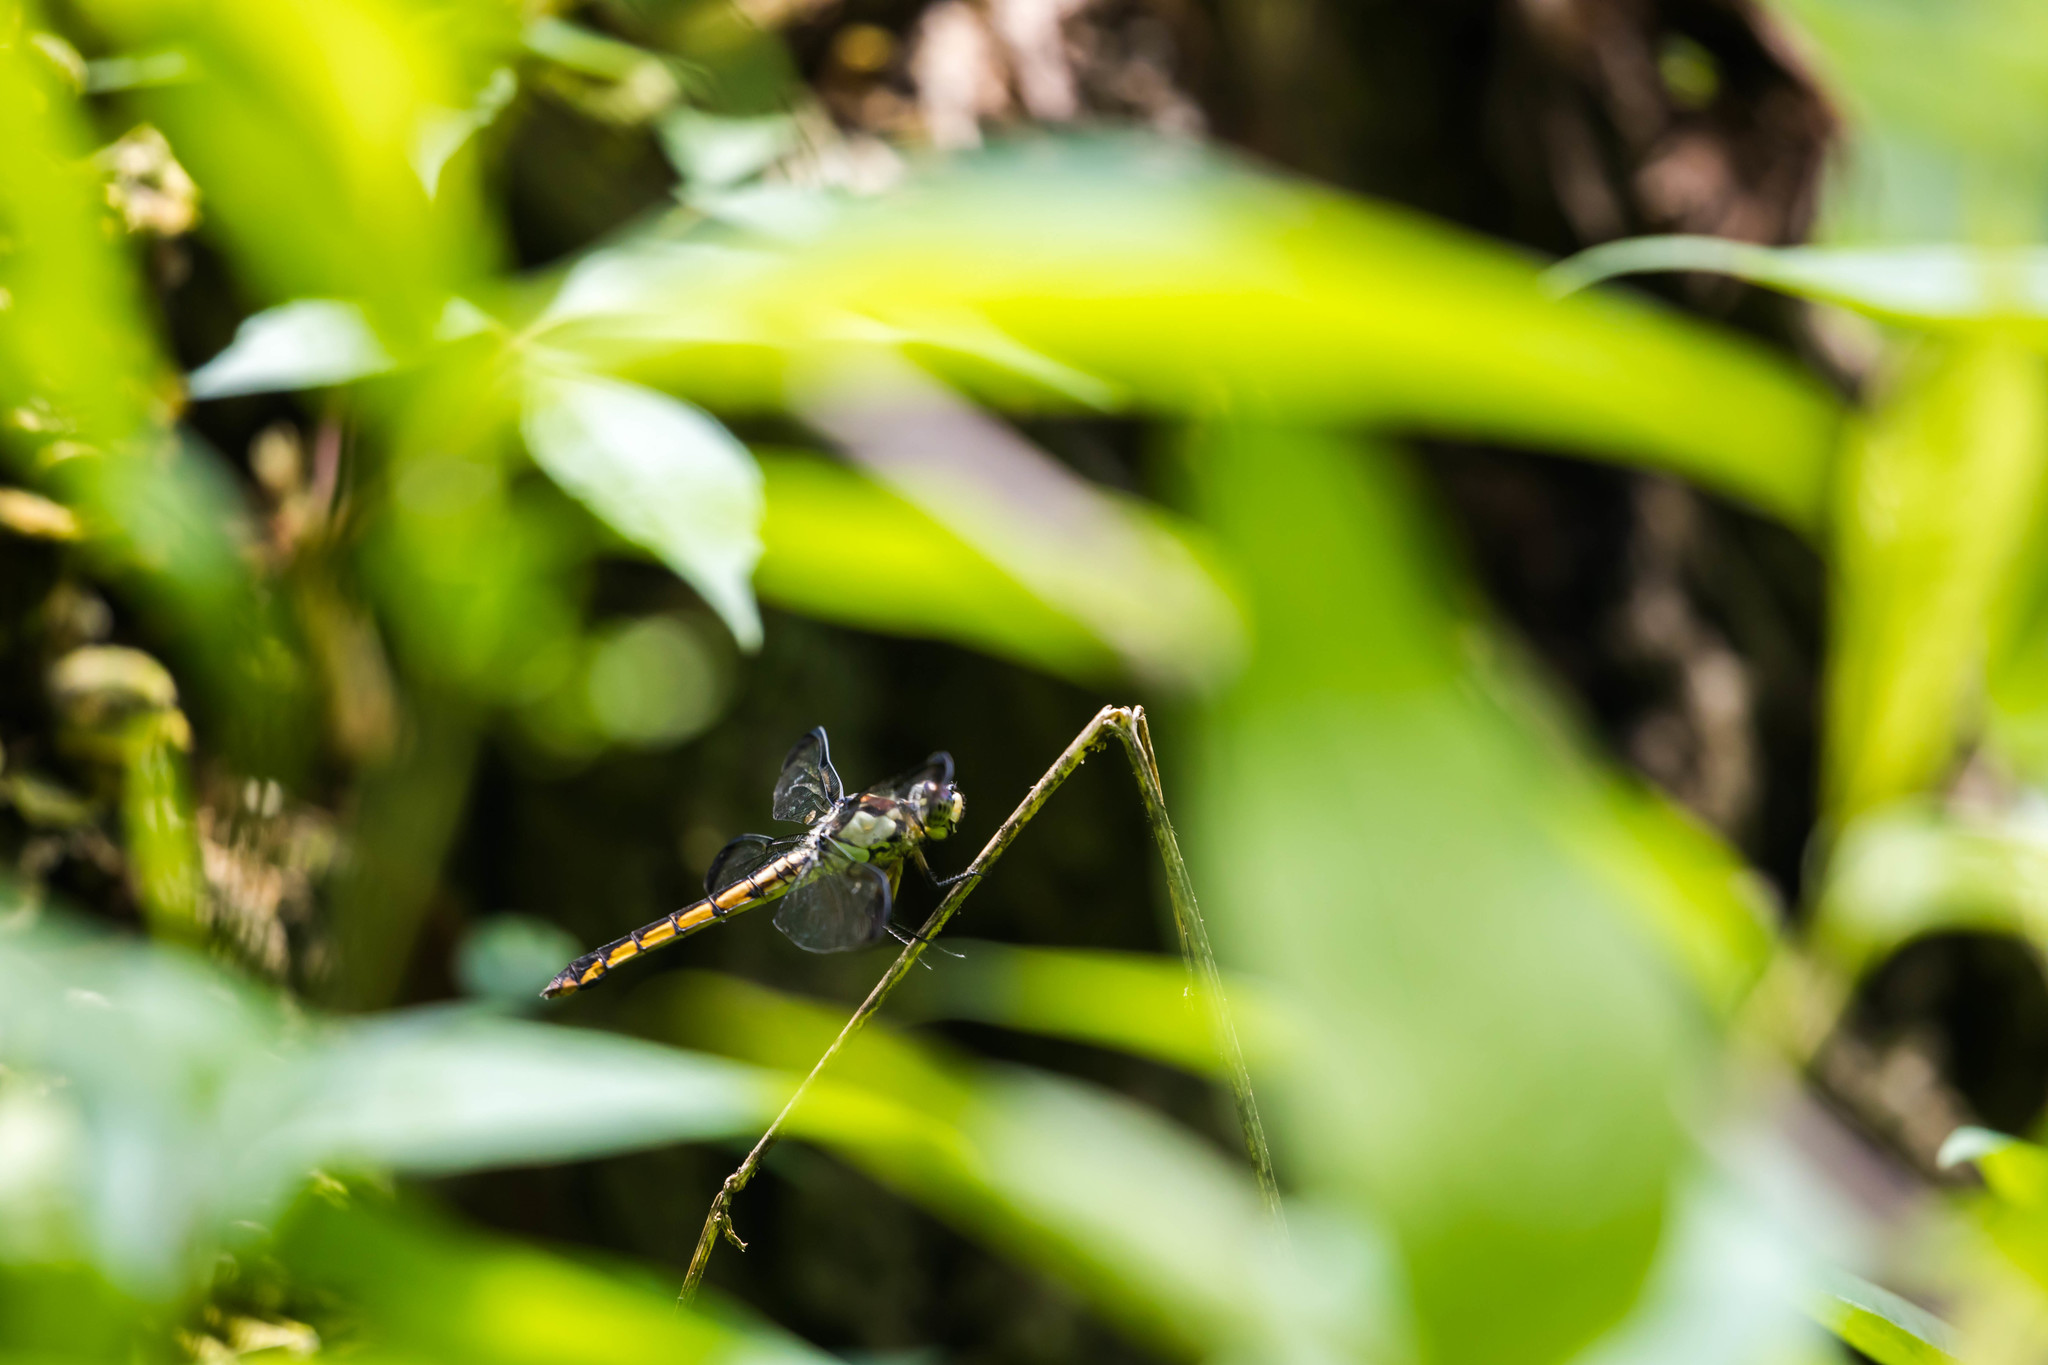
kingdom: Animalia
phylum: Arthropoda
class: Insecta
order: Odonata
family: Libellulidae
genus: Libellula
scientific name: Libellula vibrans
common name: Great blue skimmer
